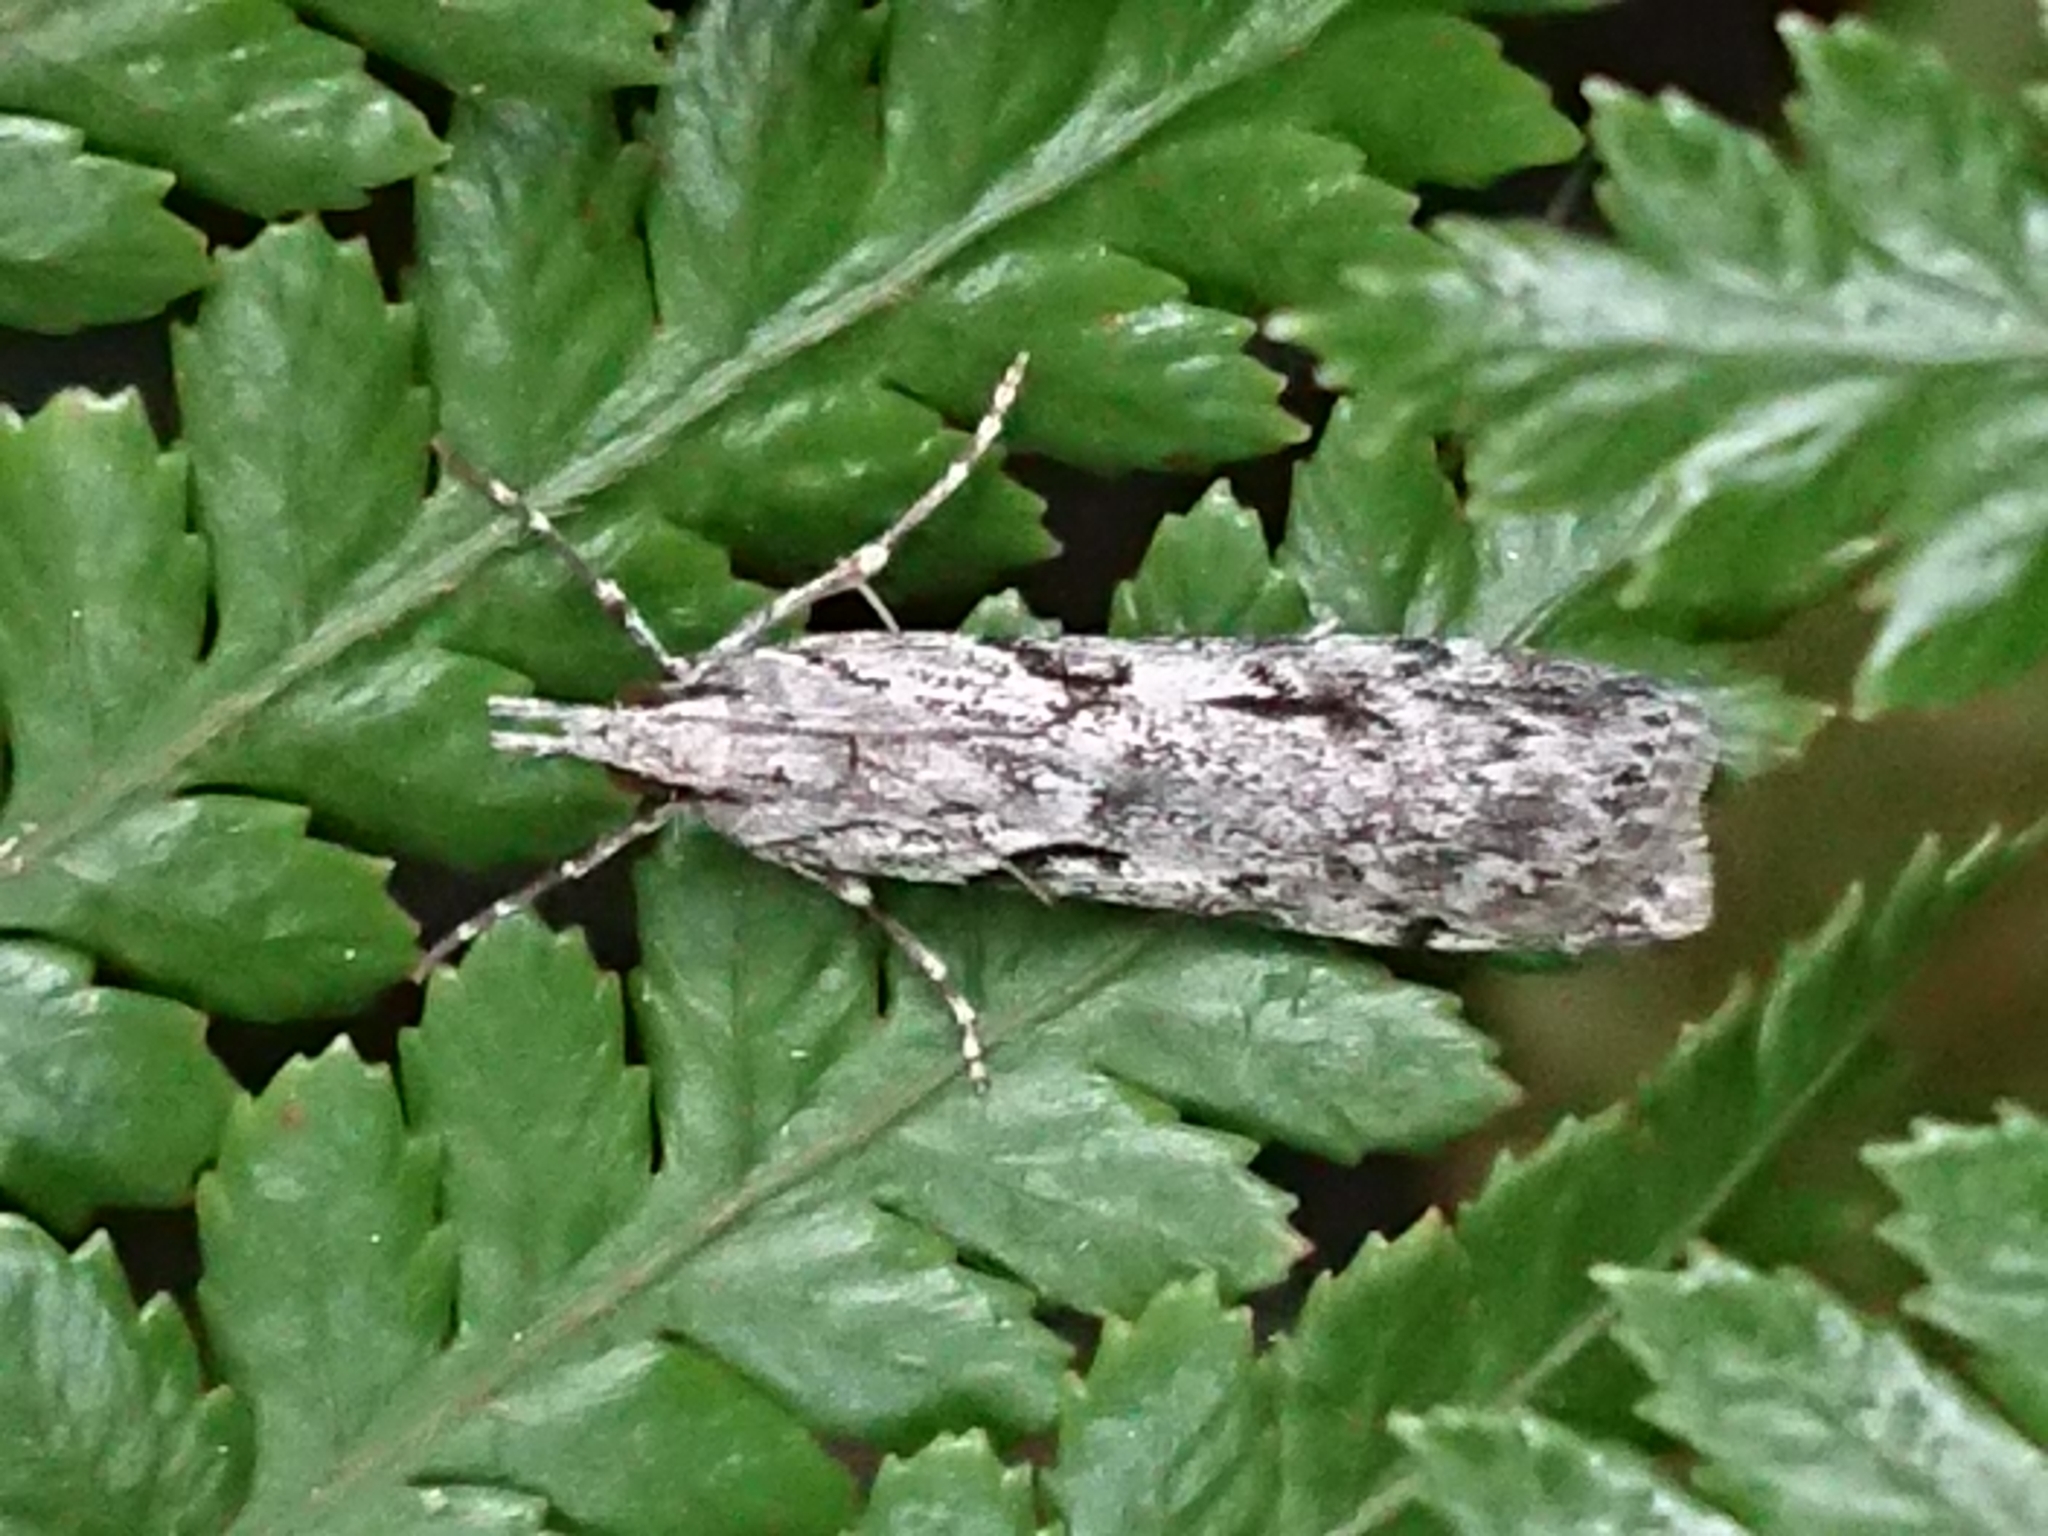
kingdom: Animalia
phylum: Arthropoda
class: Insecta
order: Lepidoptera
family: Crambidae
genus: Scoparia
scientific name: Scoparia halopis
